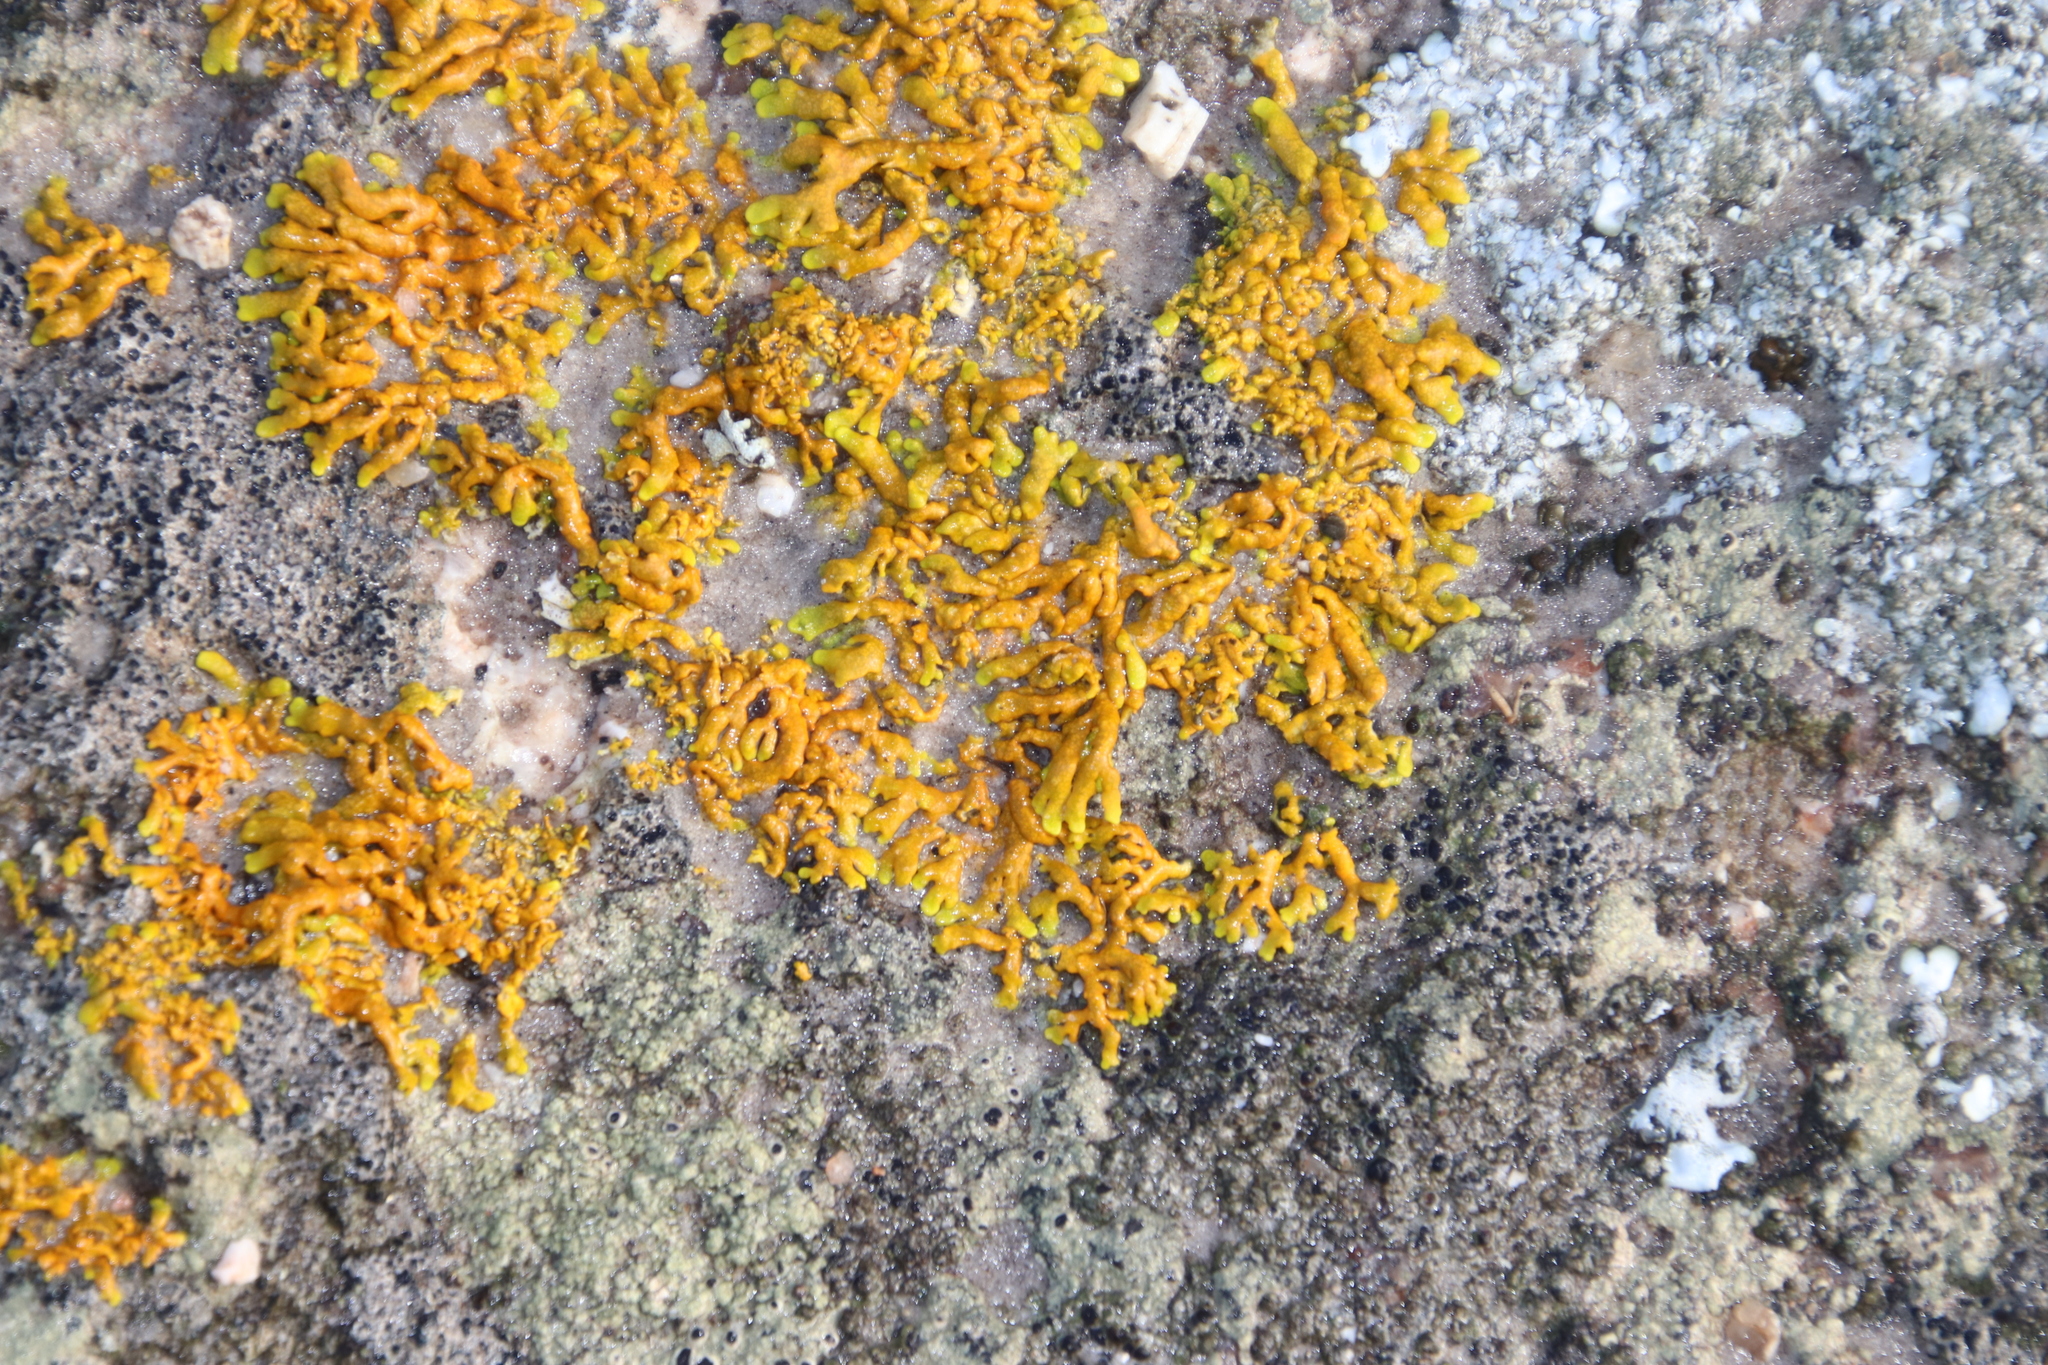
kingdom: Fungi
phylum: Ascomycota
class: Lecanoromycetes
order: Teloschistales
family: Teloschistaceae
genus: Dufourea
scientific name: Dufourea capensis
